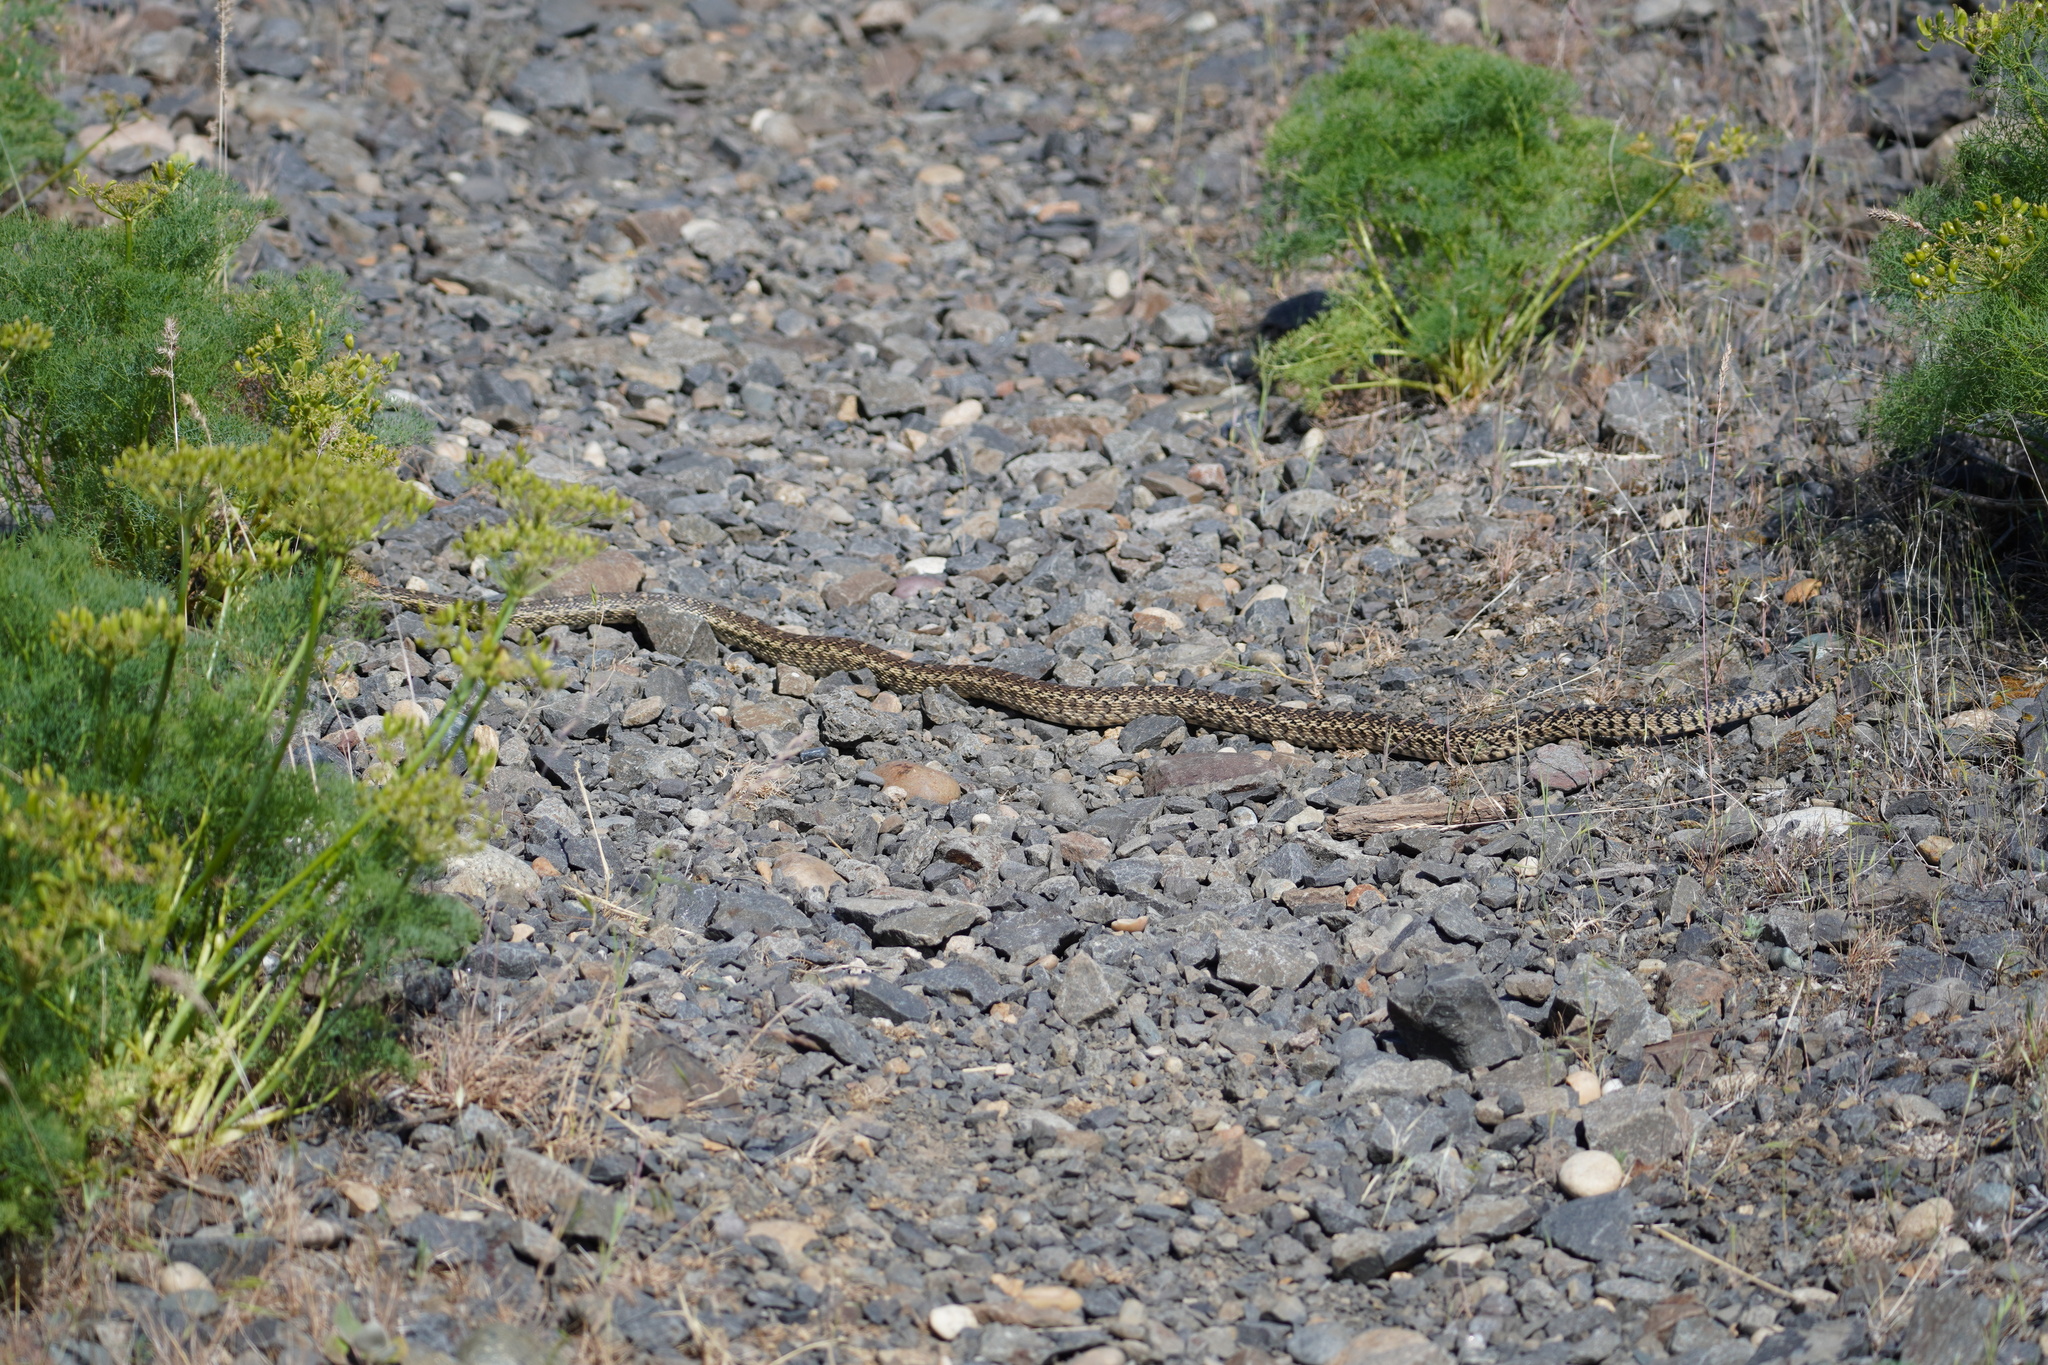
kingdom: Animalia
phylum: Chordata
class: Squamata
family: Colubridae
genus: Pituophis
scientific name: Pituophis catenifer
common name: Gopher snake
